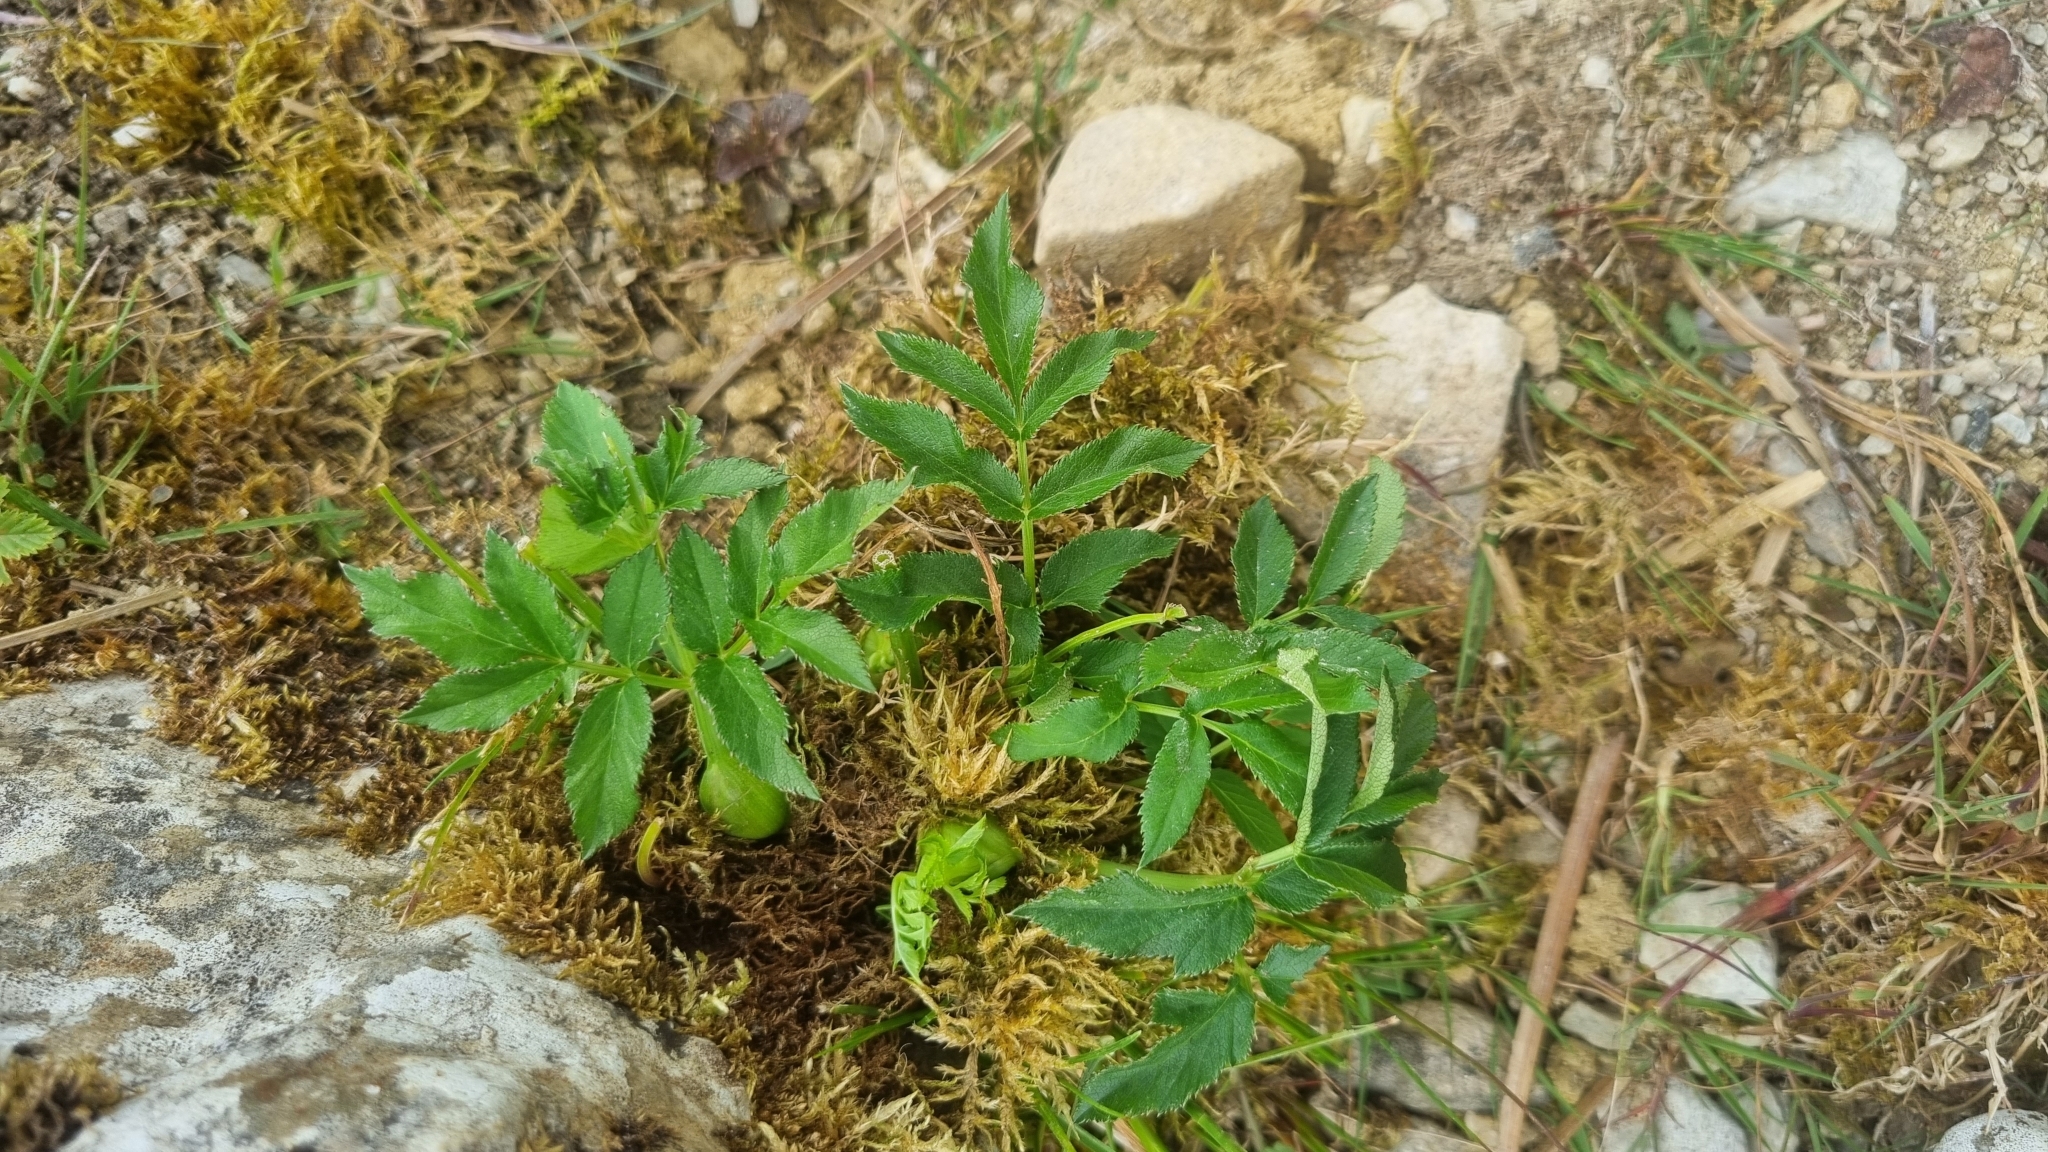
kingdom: Plantae
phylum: Tracheophyta
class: Magnoliopsida
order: Apiales
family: Apiaceae
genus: Angelica
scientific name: Angelica sylvestris
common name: Wild angelica
